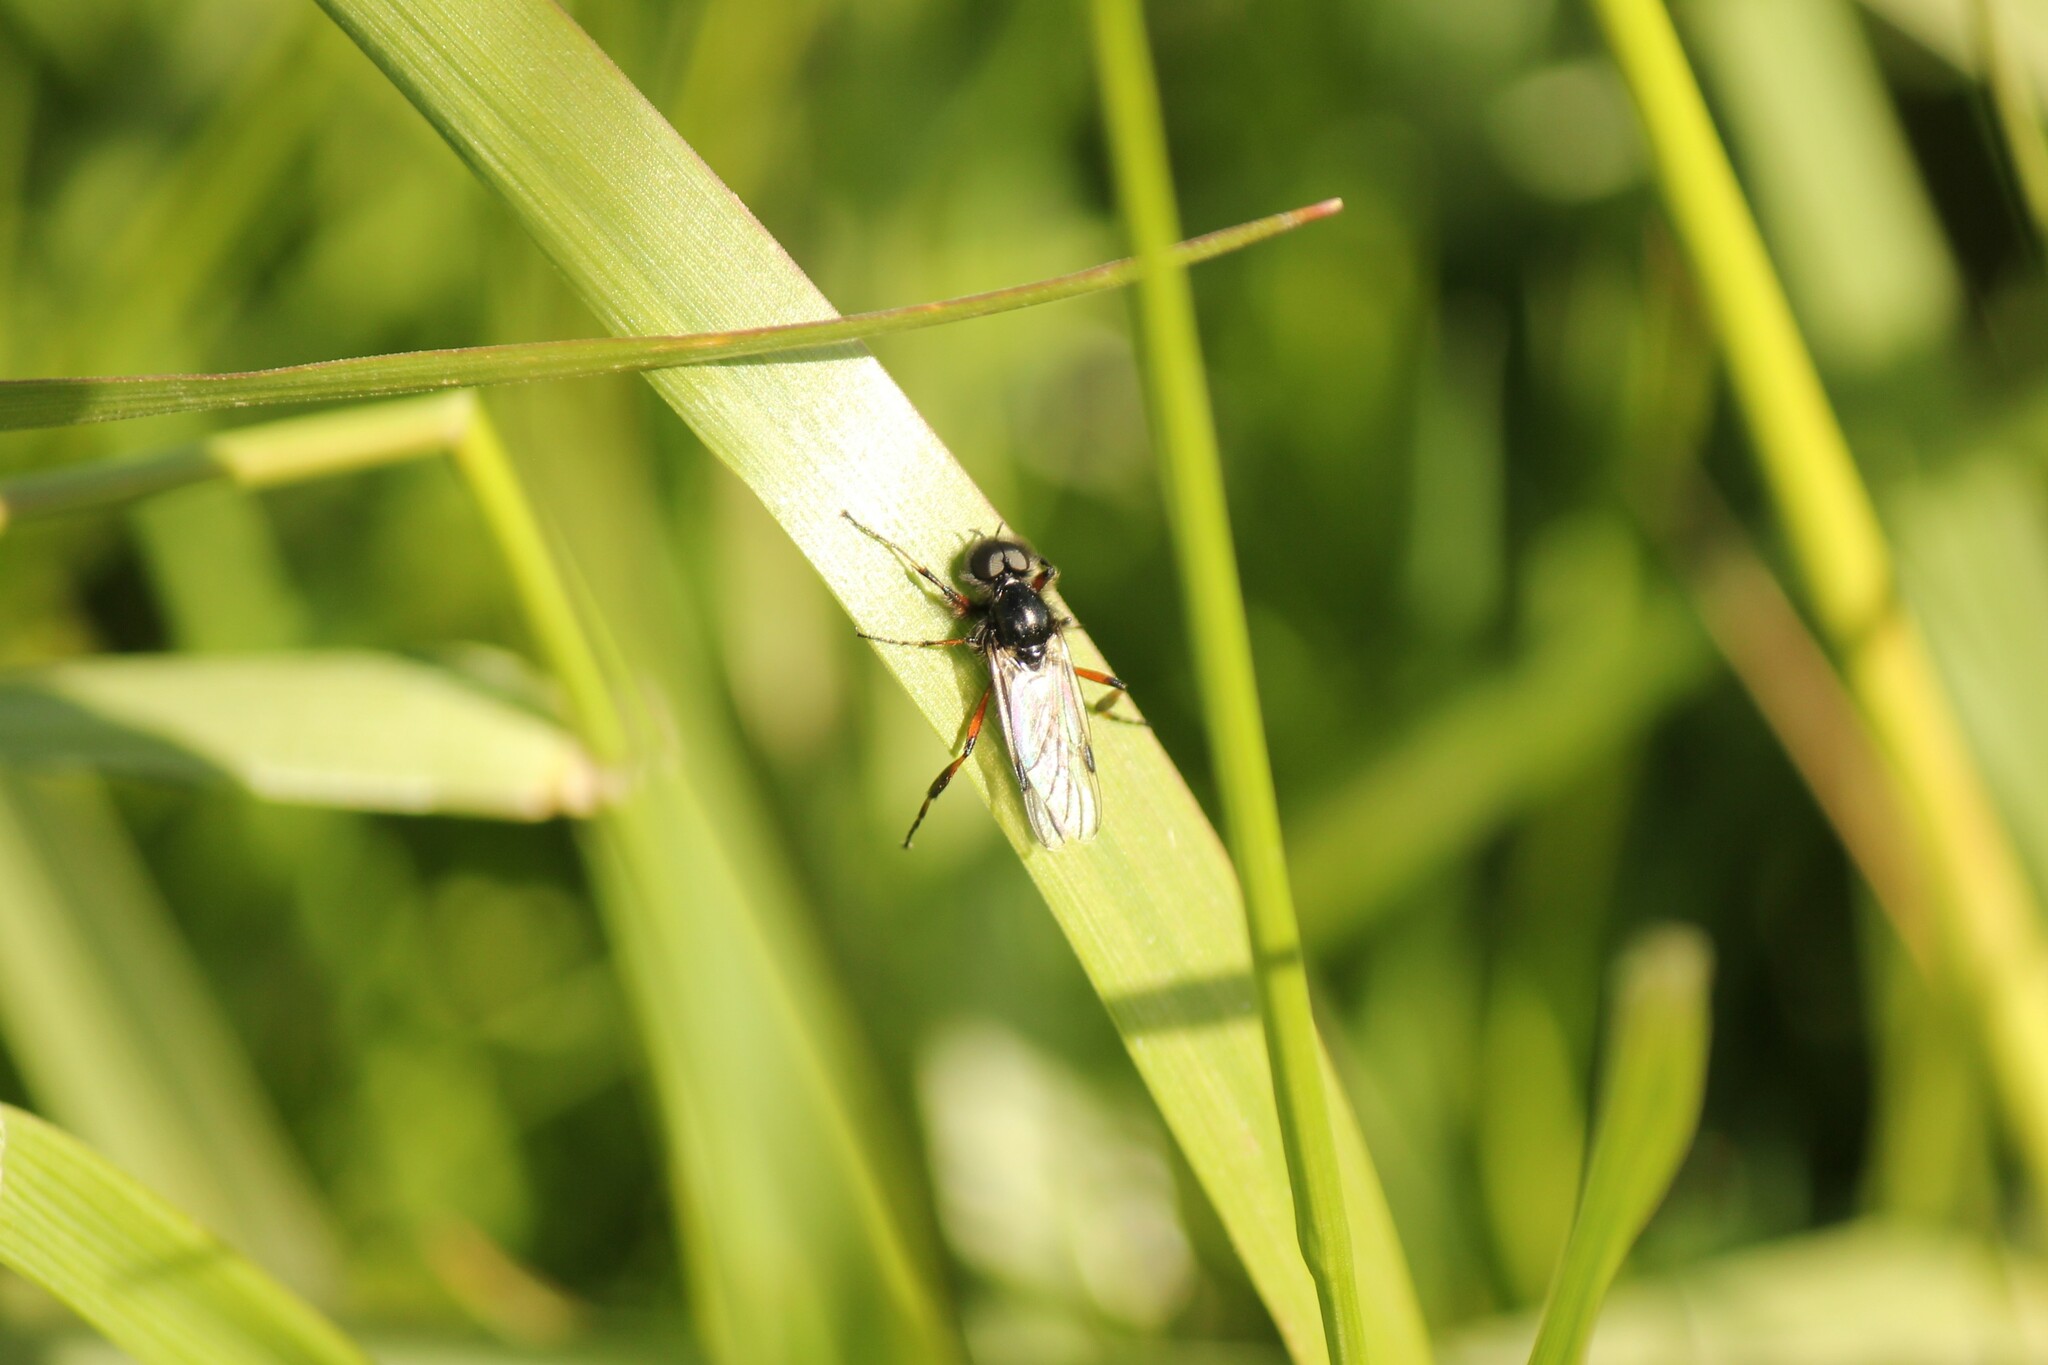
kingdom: Animalia
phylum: Arthropoda
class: Insecta
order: Diptera
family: Bibionidae
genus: Bibio
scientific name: Bibio xanthopus
